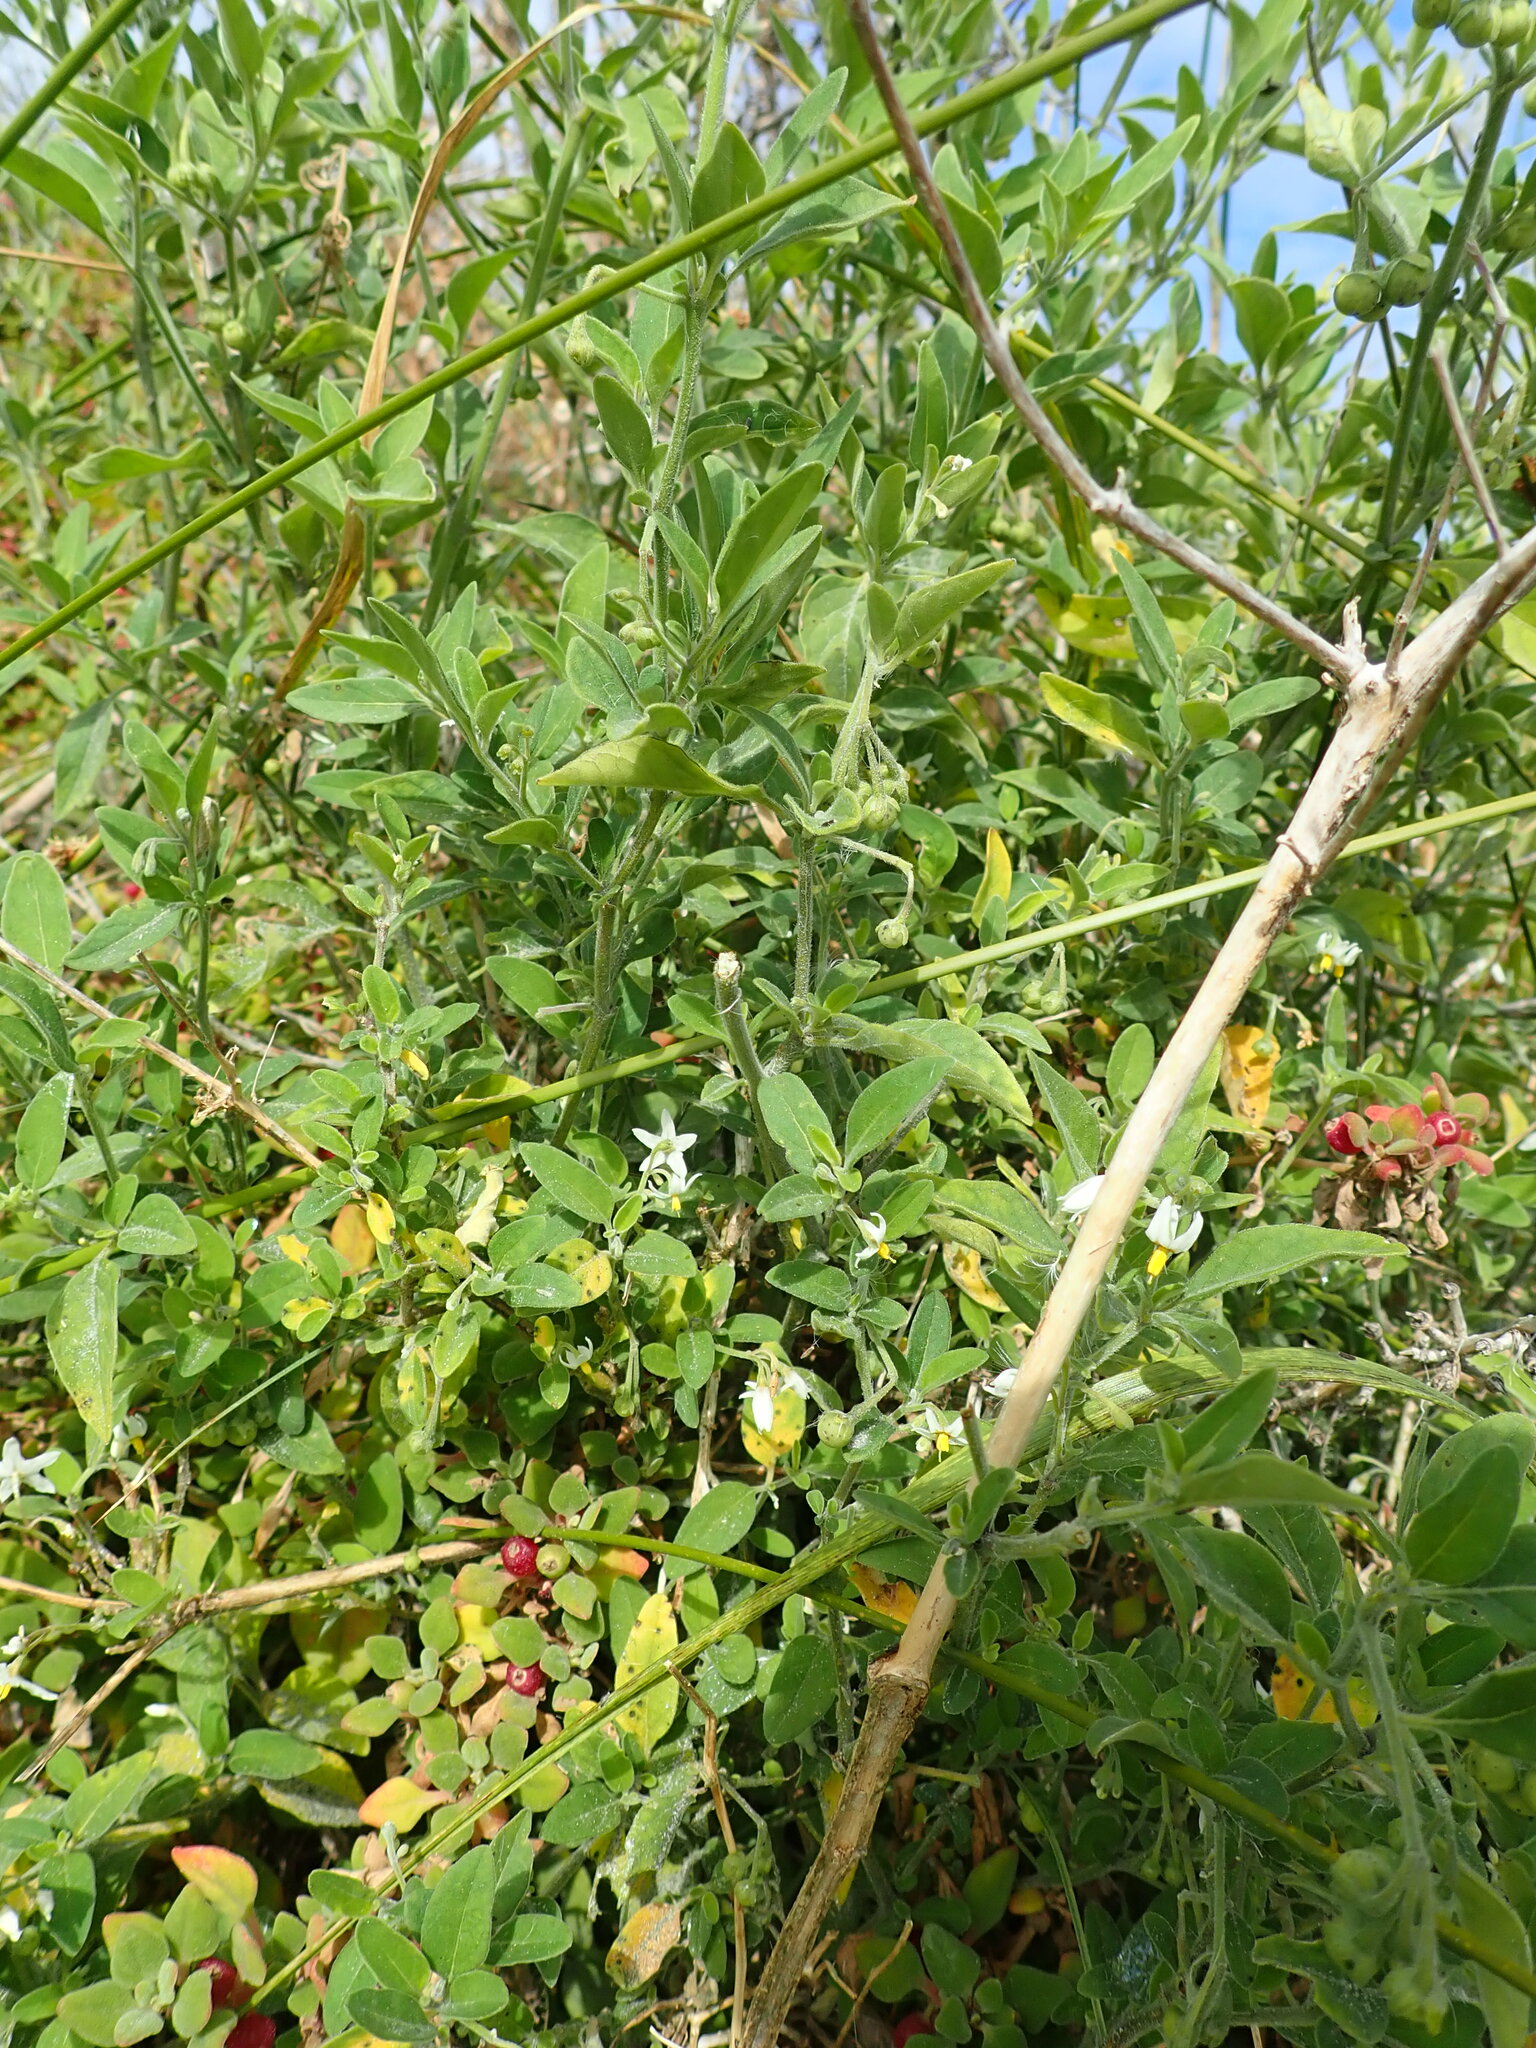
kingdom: Plantae
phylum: Tracheophyta
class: Magnoliopsida
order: Solanales
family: Solanaceae
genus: Solanum
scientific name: Solanum chenopodioides
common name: Tall nightshade
